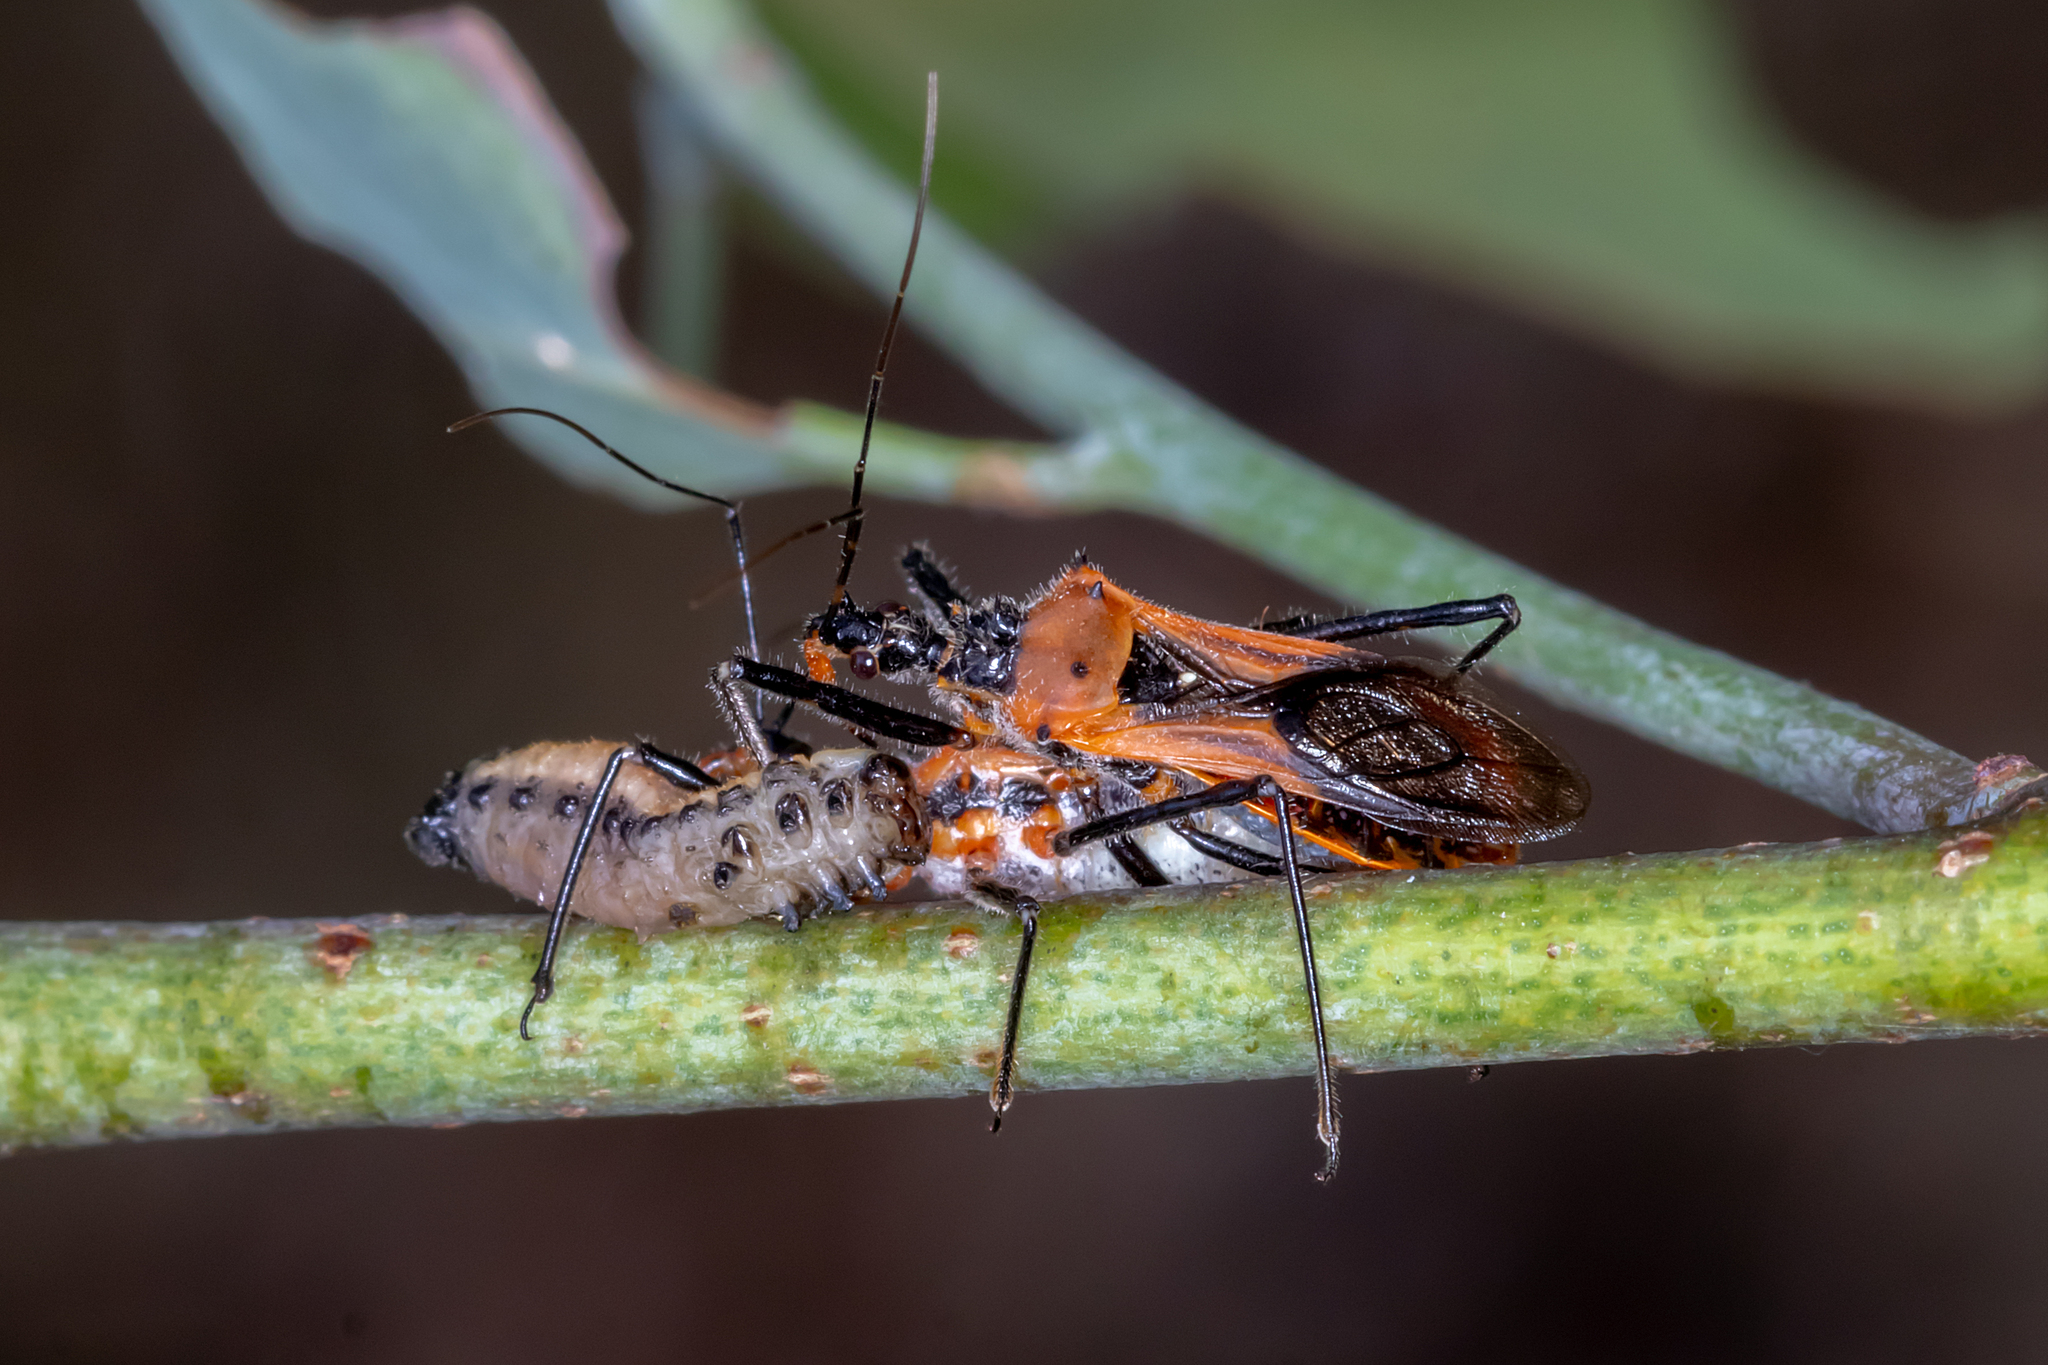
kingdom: Animalia
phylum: Arthropoda
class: Insecta
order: Hemiptera
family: Reduviidae
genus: Gminatus
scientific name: Gminatus australis
